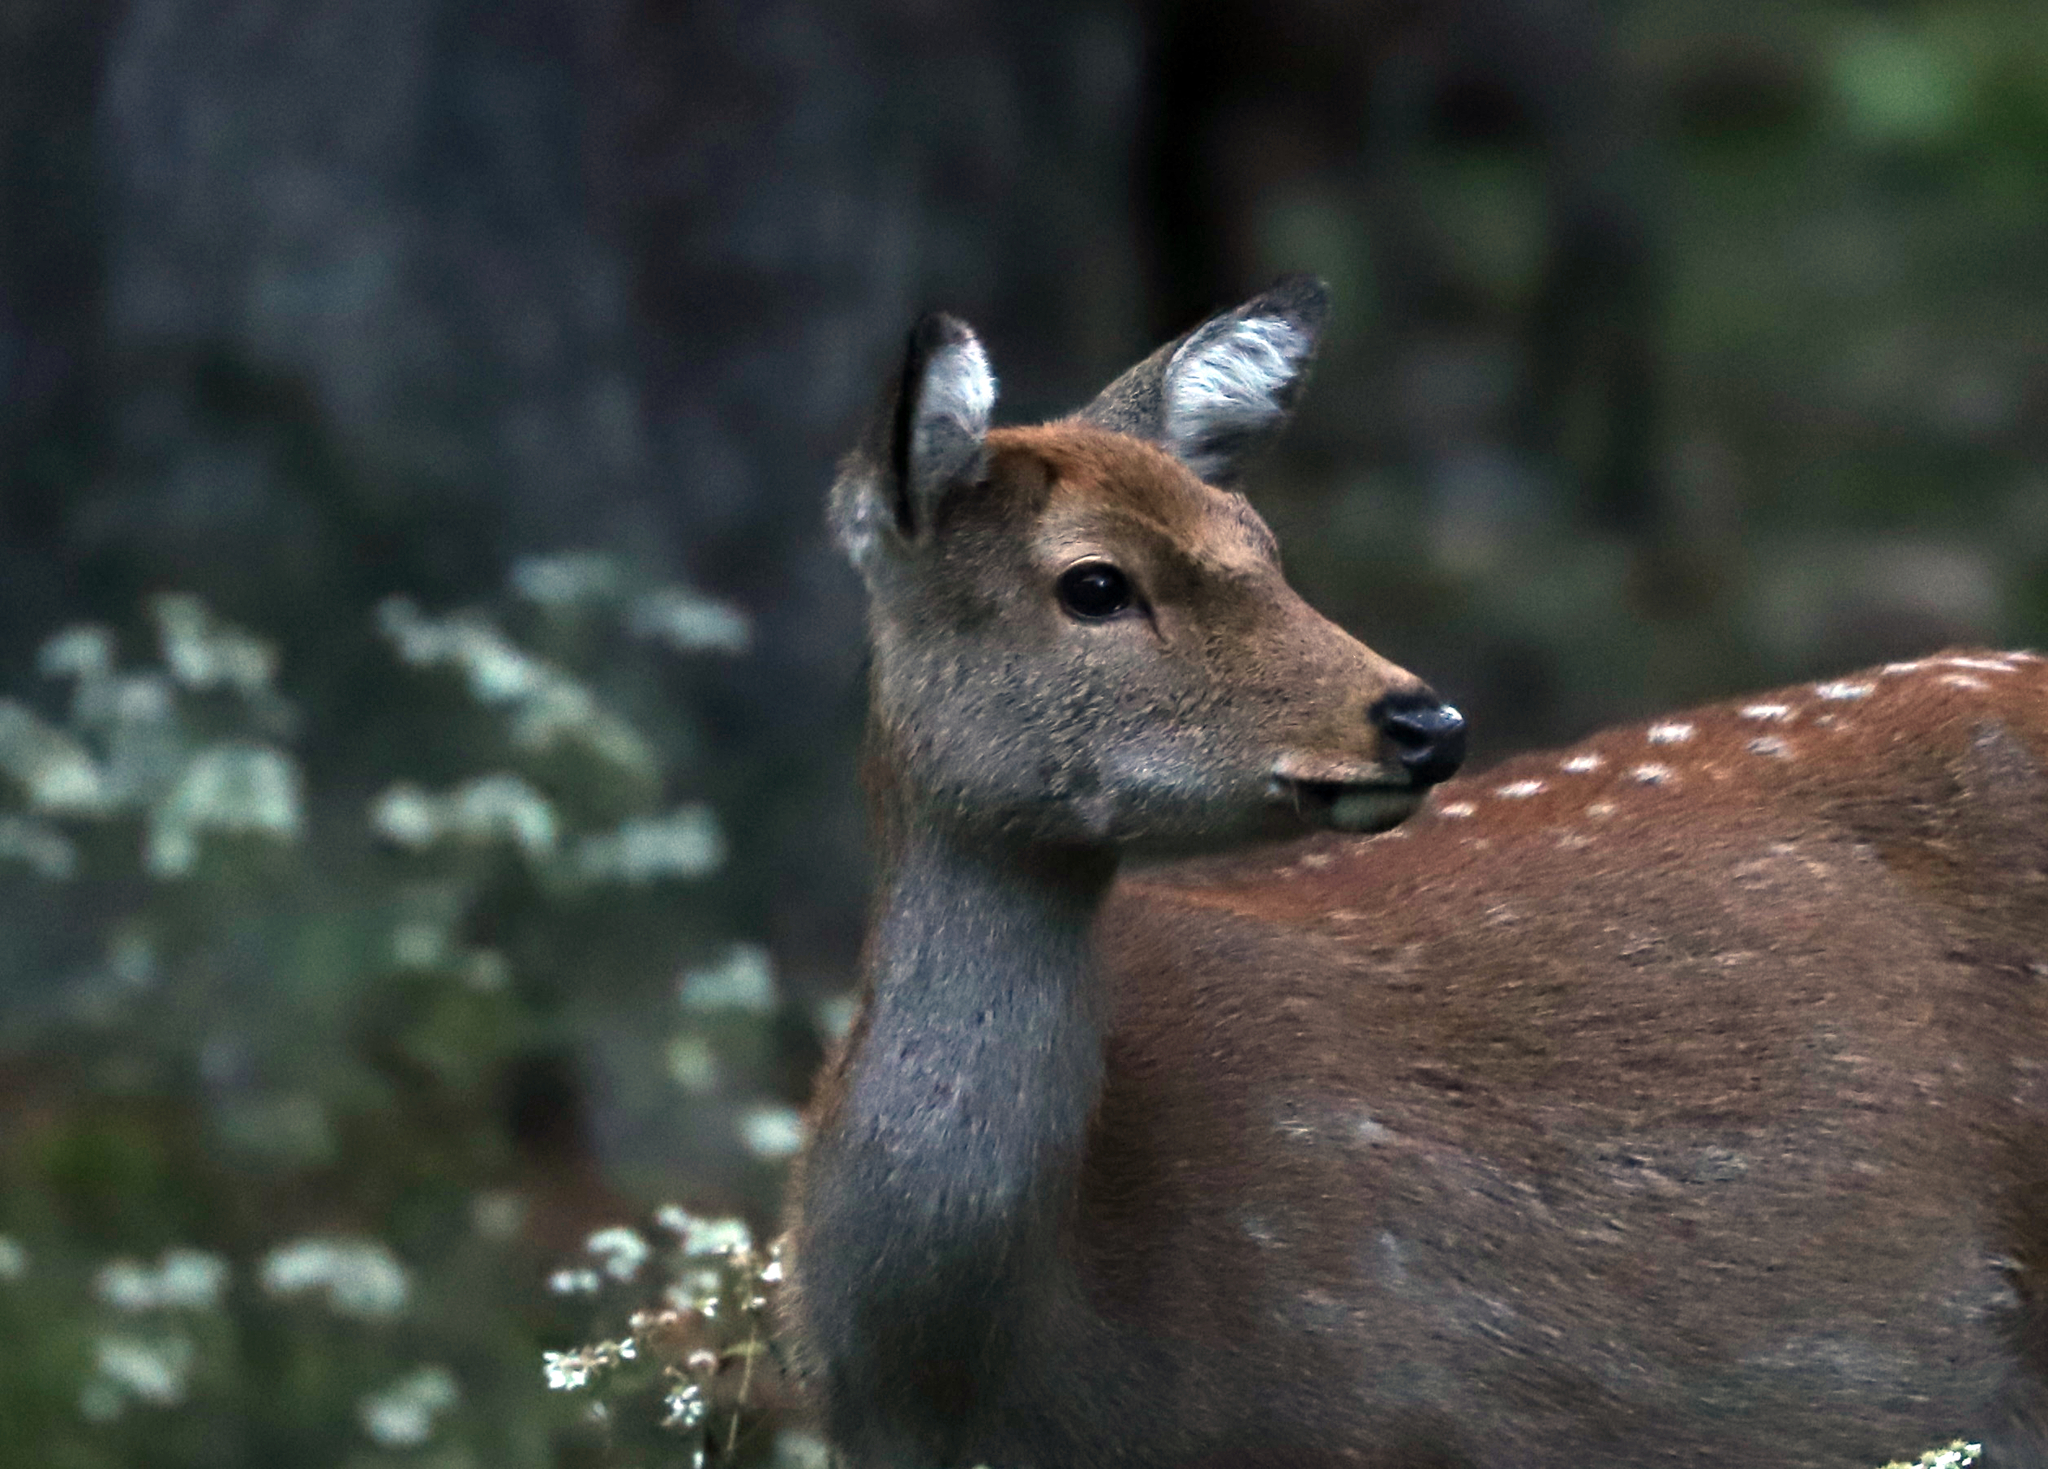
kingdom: Animalia
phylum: Chordata
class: Mammalia
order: Artiodactyla
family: Cervidae
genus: Cervus
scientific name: Cervus nippon
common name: Sika deer
